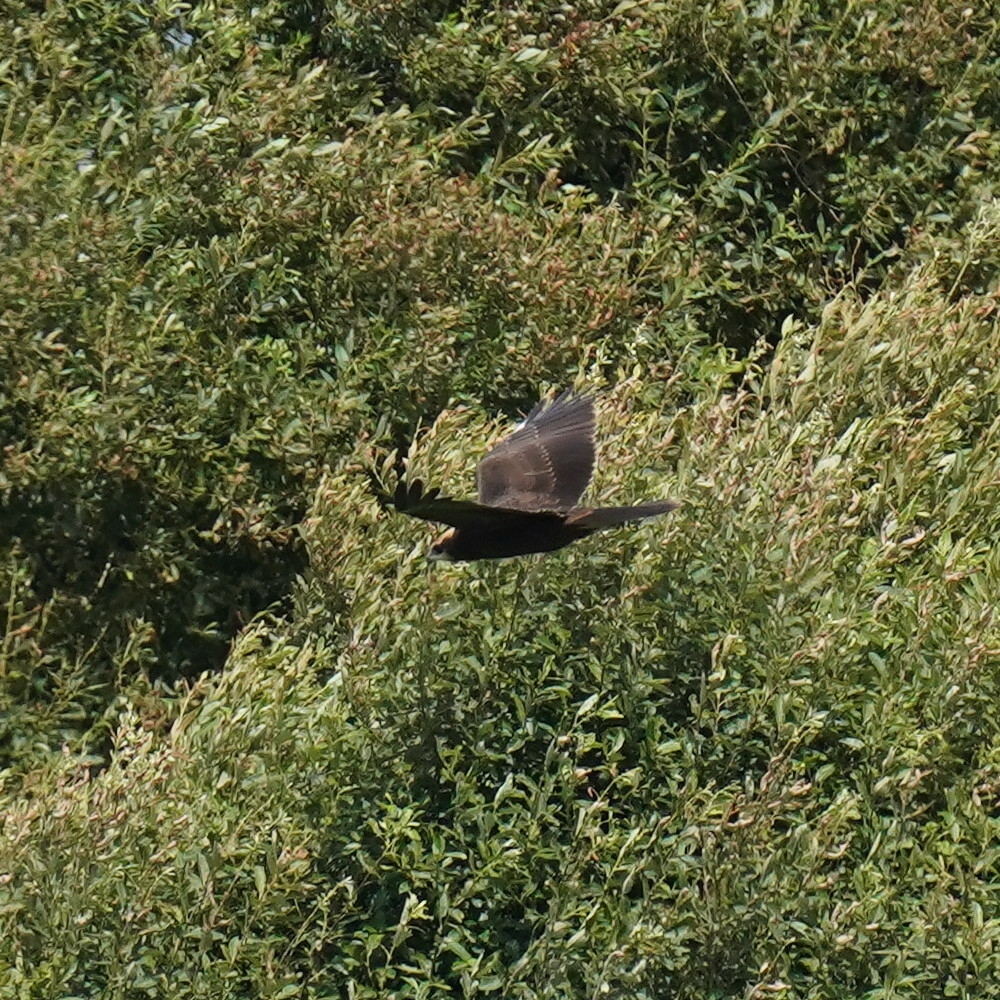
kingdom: Animalia
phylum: Chordata
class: Aves
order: Accipitriformes
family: Accipitridae
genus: Circus
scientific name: Circus aeruginosus
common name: Western marsh harrier
